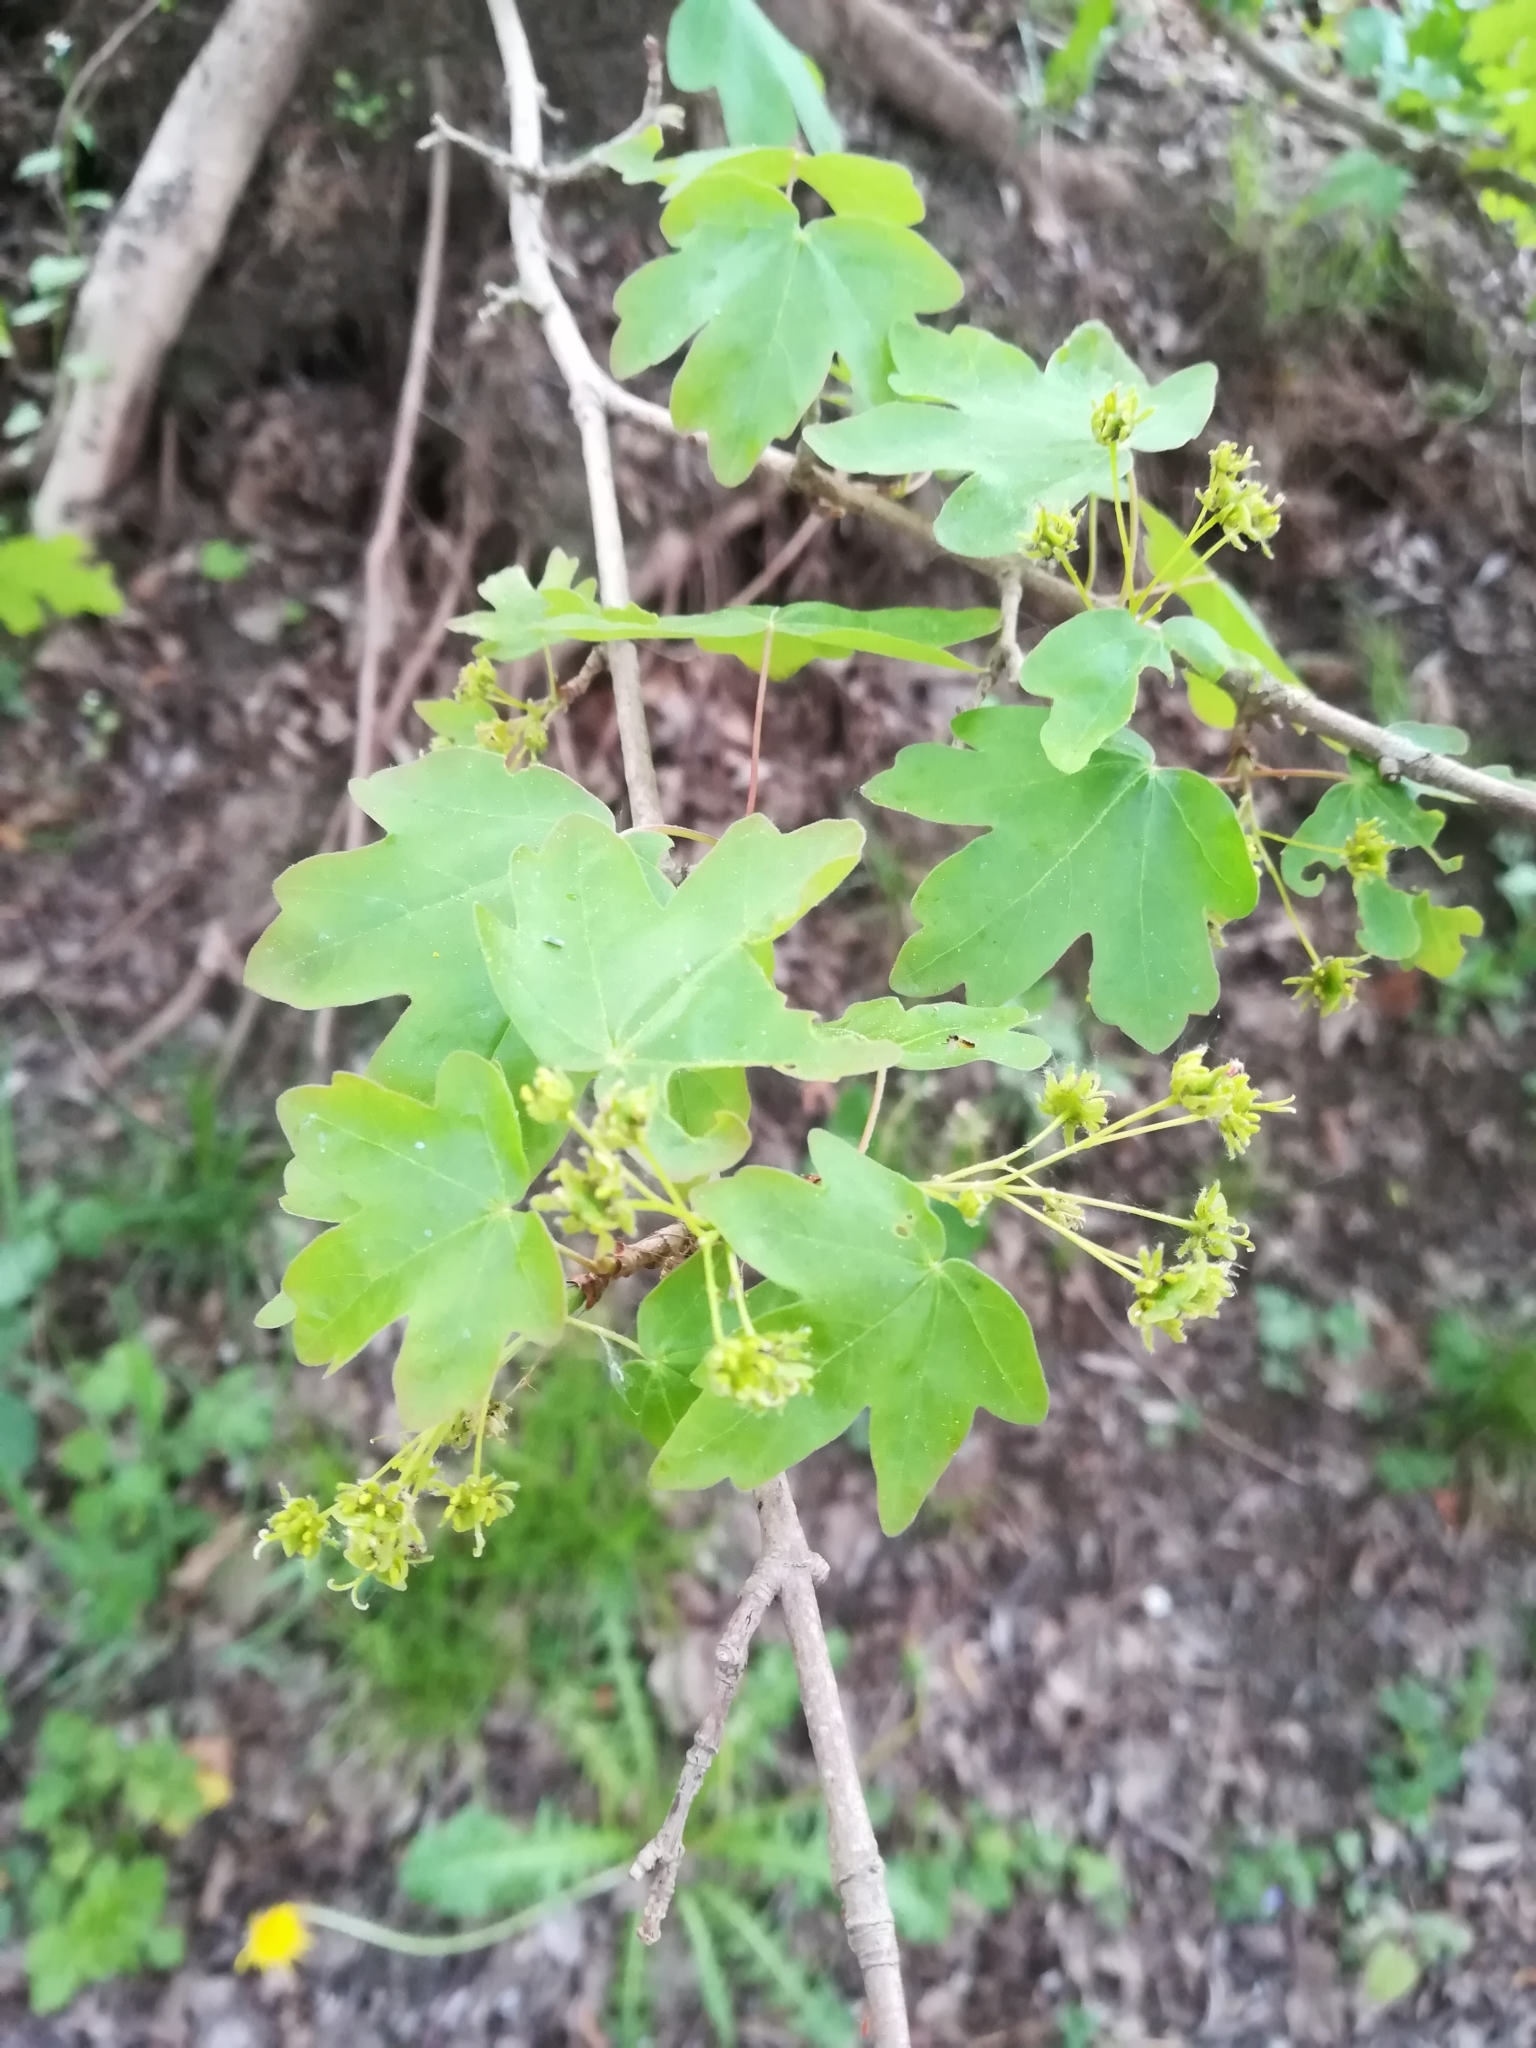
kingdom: Plantae
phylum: Tracheophyta
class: Magnoliopsida
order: Sapindales
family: Sapindaceae
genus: Acer
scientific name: Acer campestre
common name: Field maple
